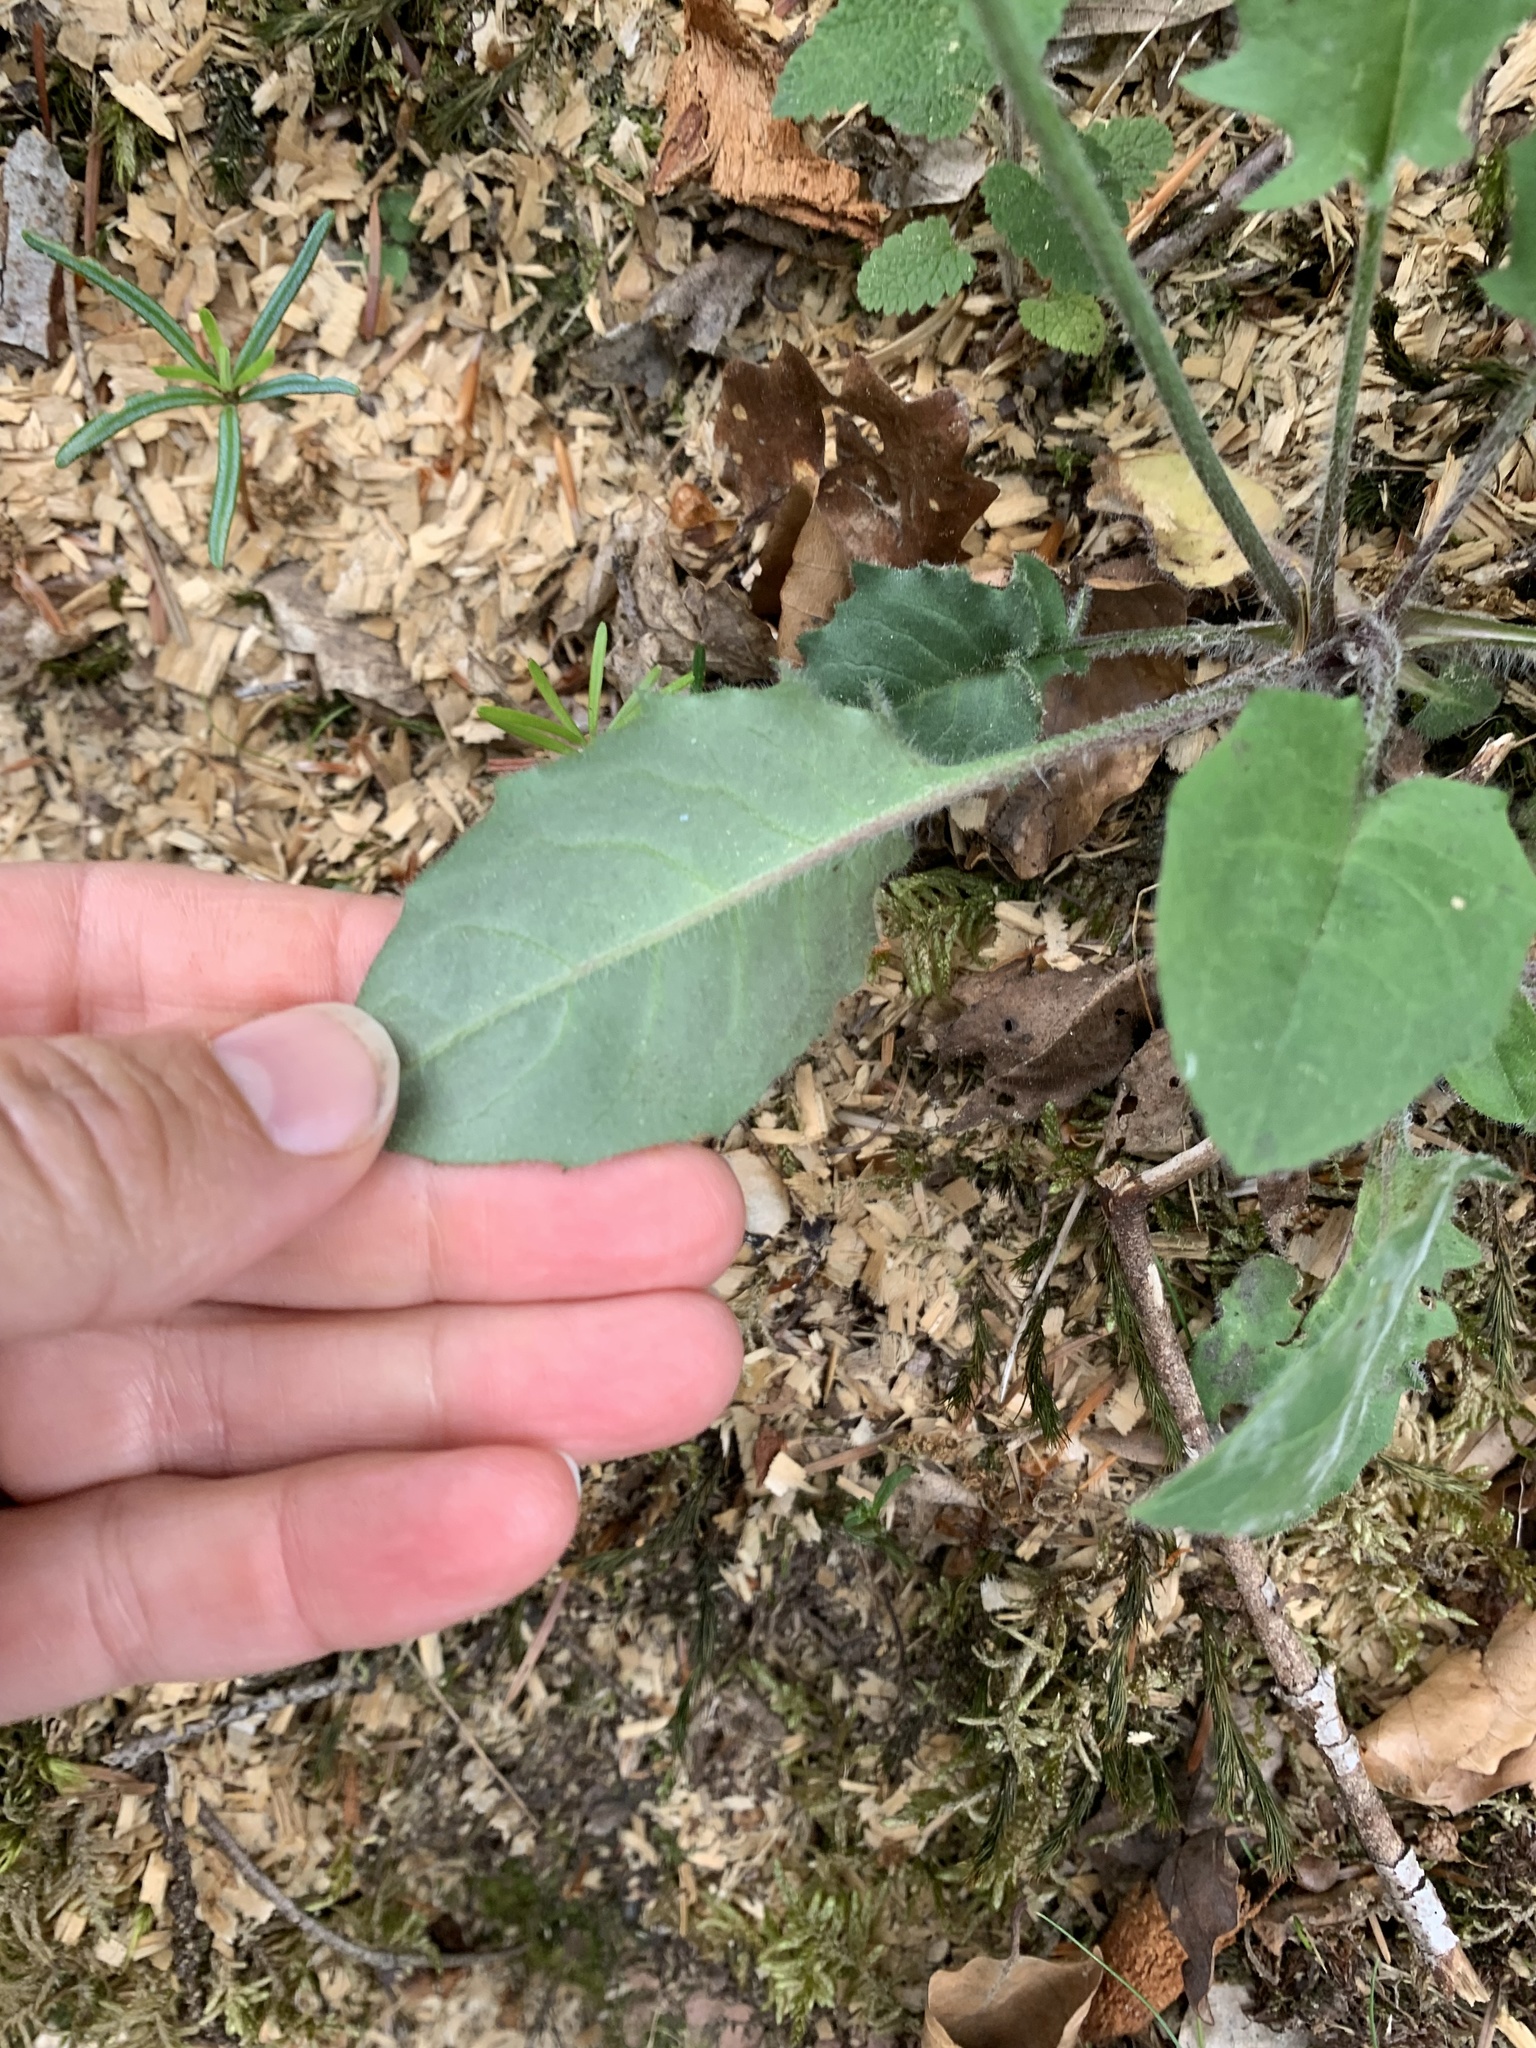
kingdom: Plantae
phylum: Tracheophyta
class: Magnoliopsida
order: Asterales
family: Asteraceae
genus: Hieracium
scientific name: Hieracium murorum
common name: Wall hawkweed
